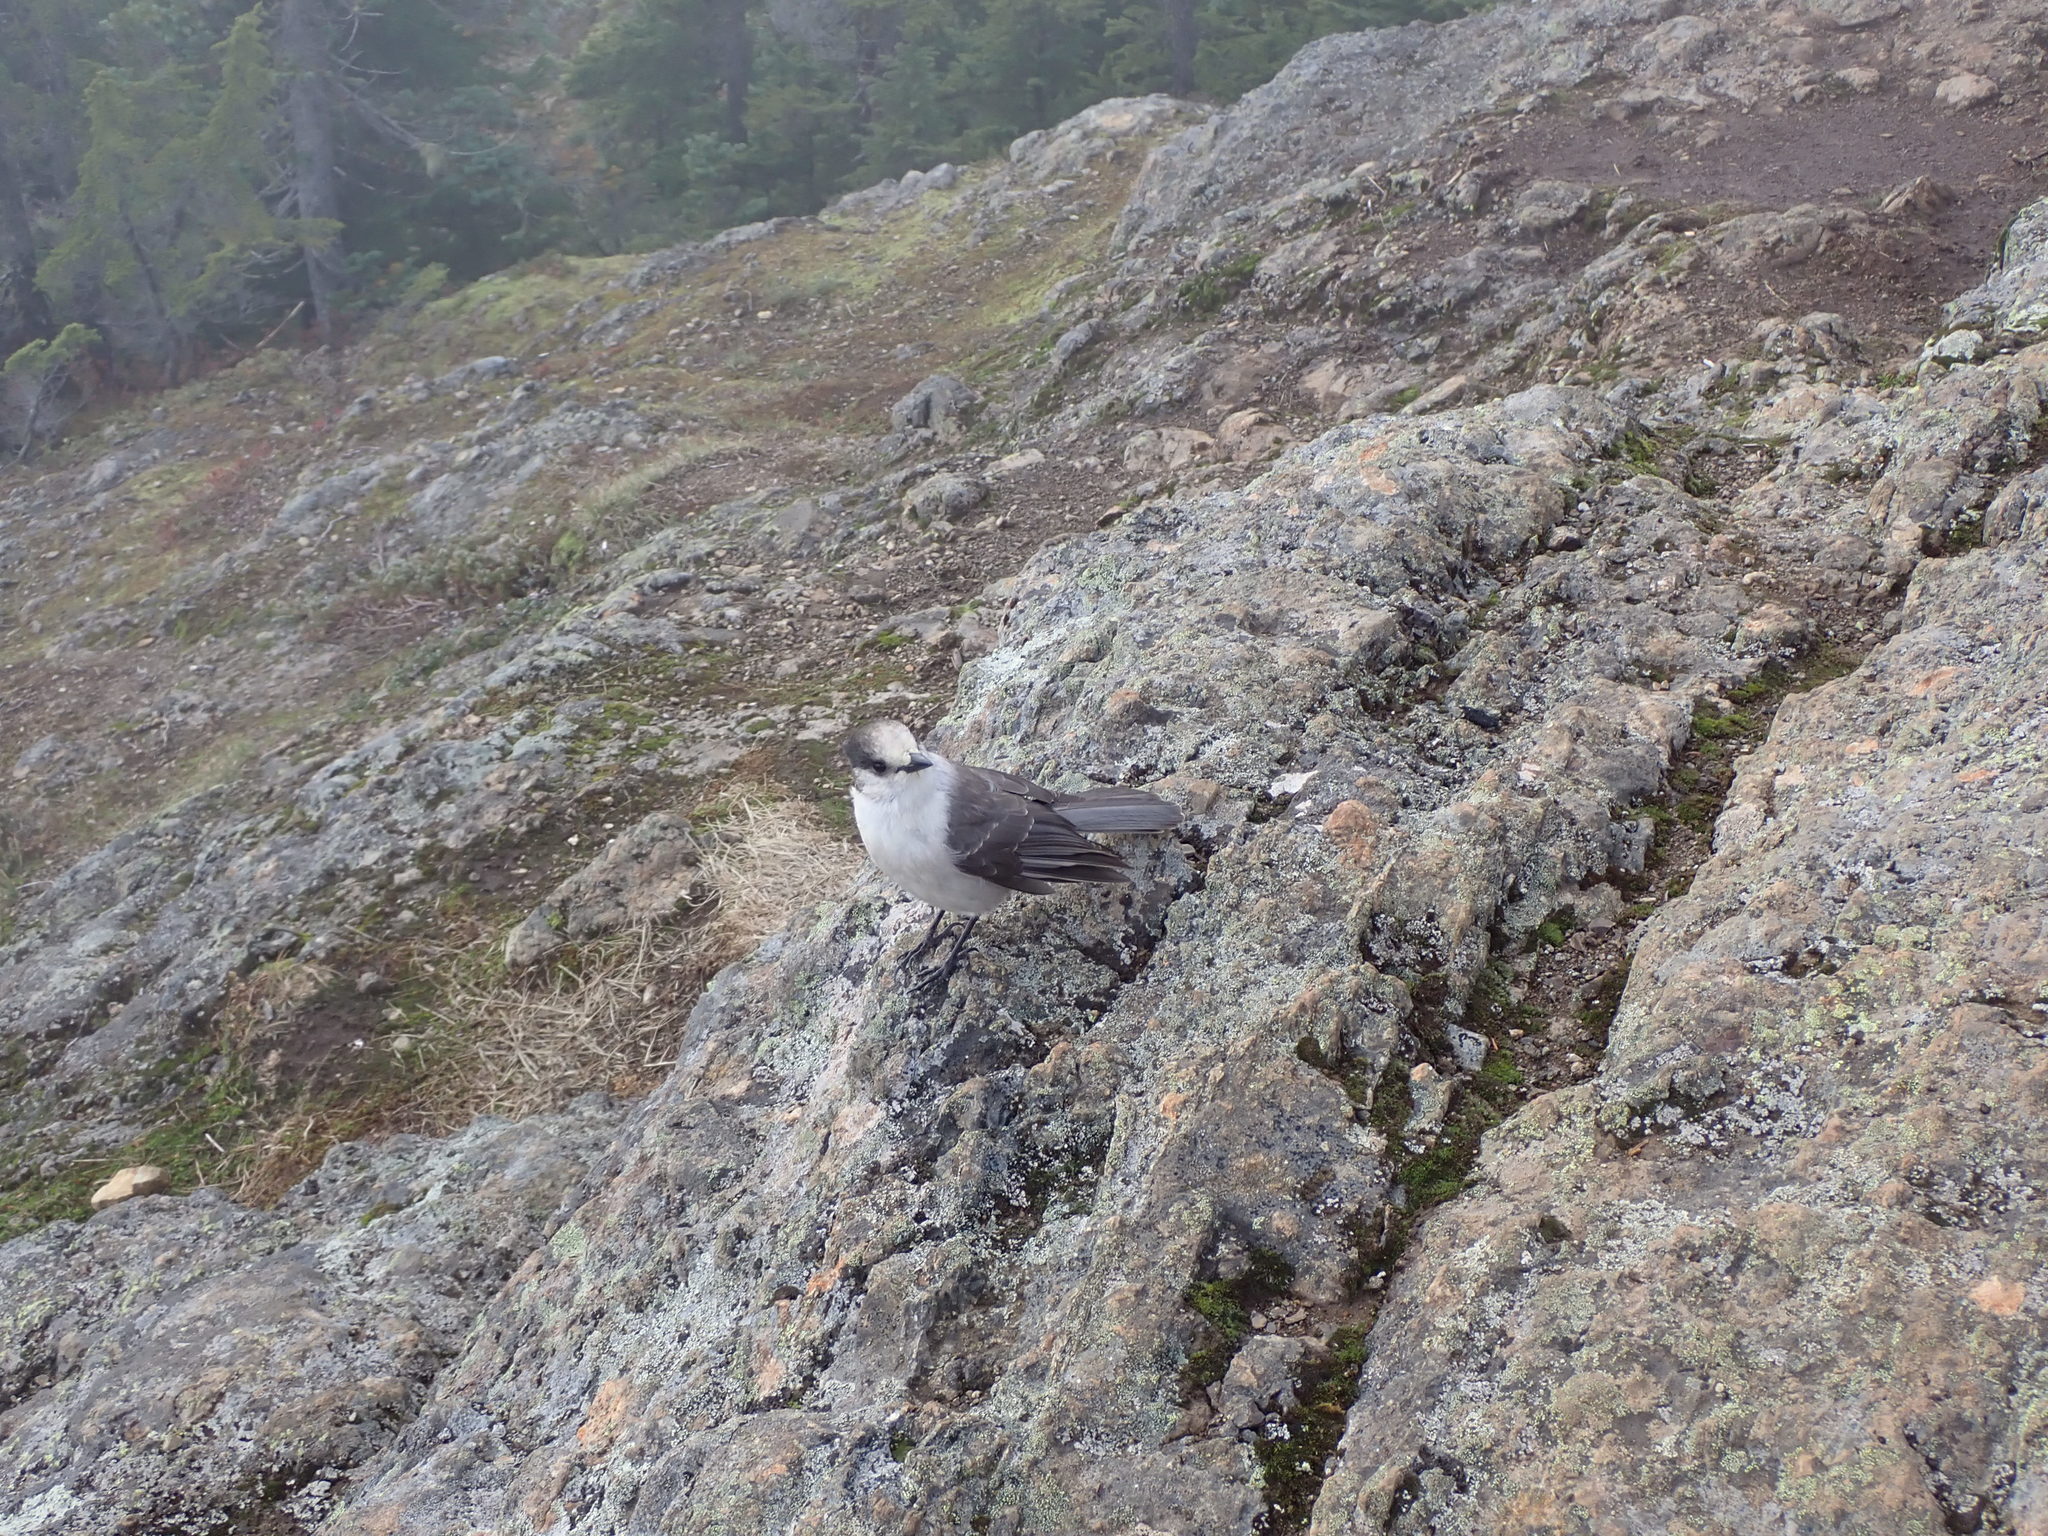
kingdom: Animalia
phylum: Chordata
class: Aves
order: Passeriformes
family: Corvidae
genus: Perisoreus
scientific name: Perisoreus canadensis
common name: Gray jay
